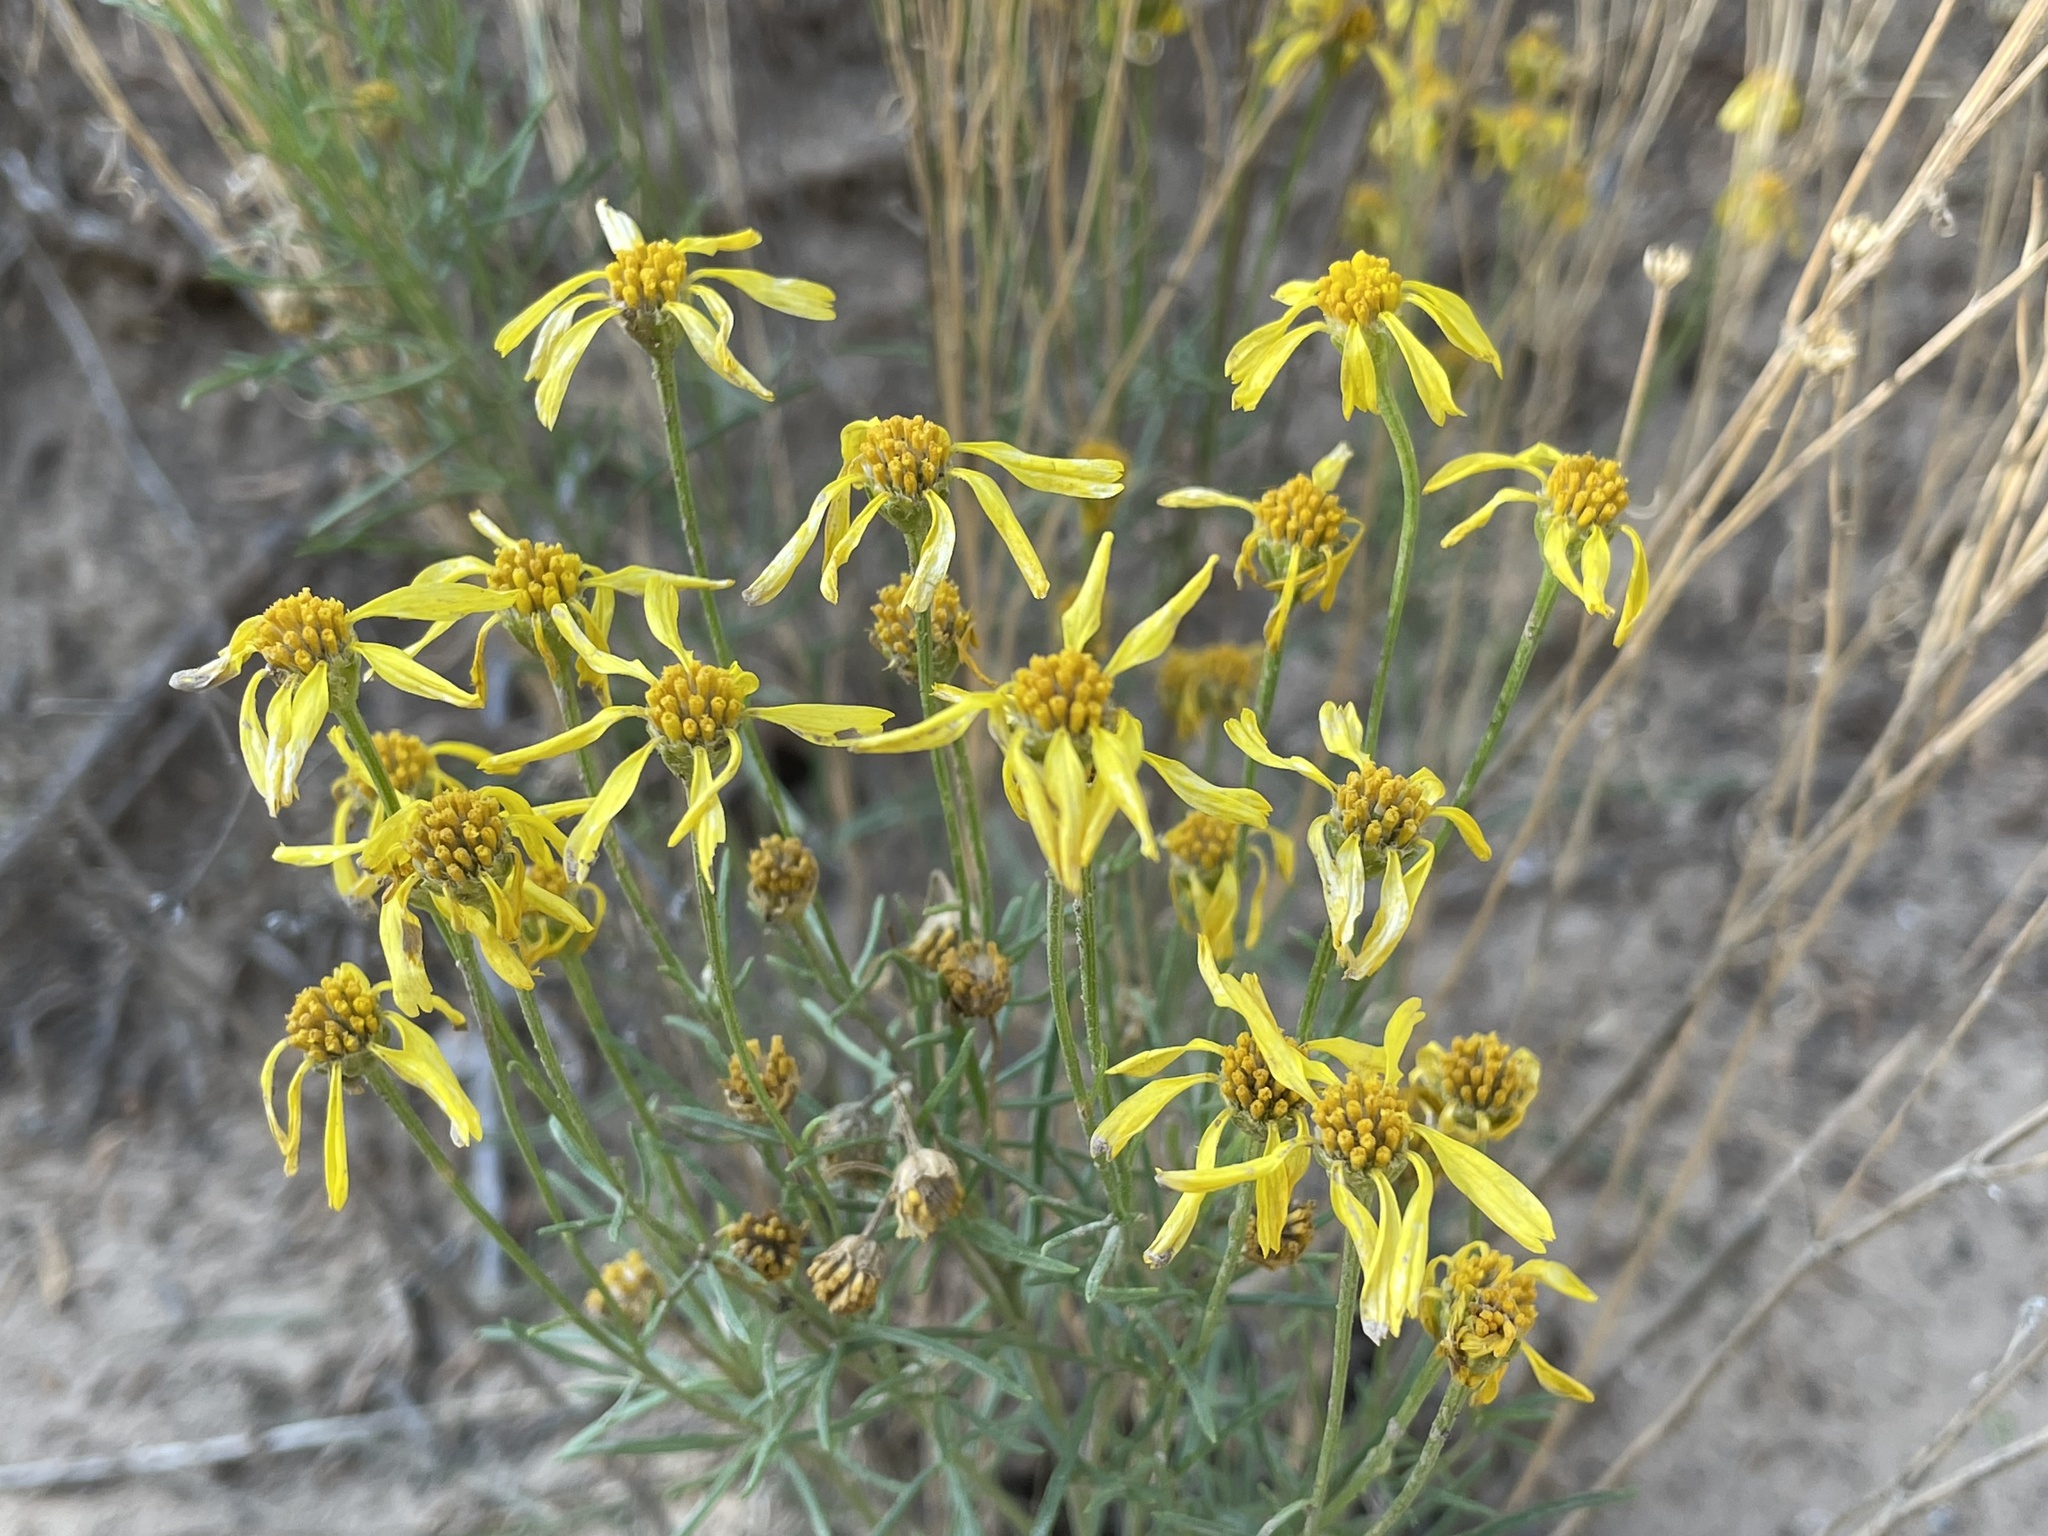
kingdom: Plantae
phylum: Tracheophyta
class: Magnoliopsida
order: Asterales
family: Asteraceae
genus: Hymenoxys
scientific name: Hymenoxys richardsonii
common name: Pingue rubberweed
